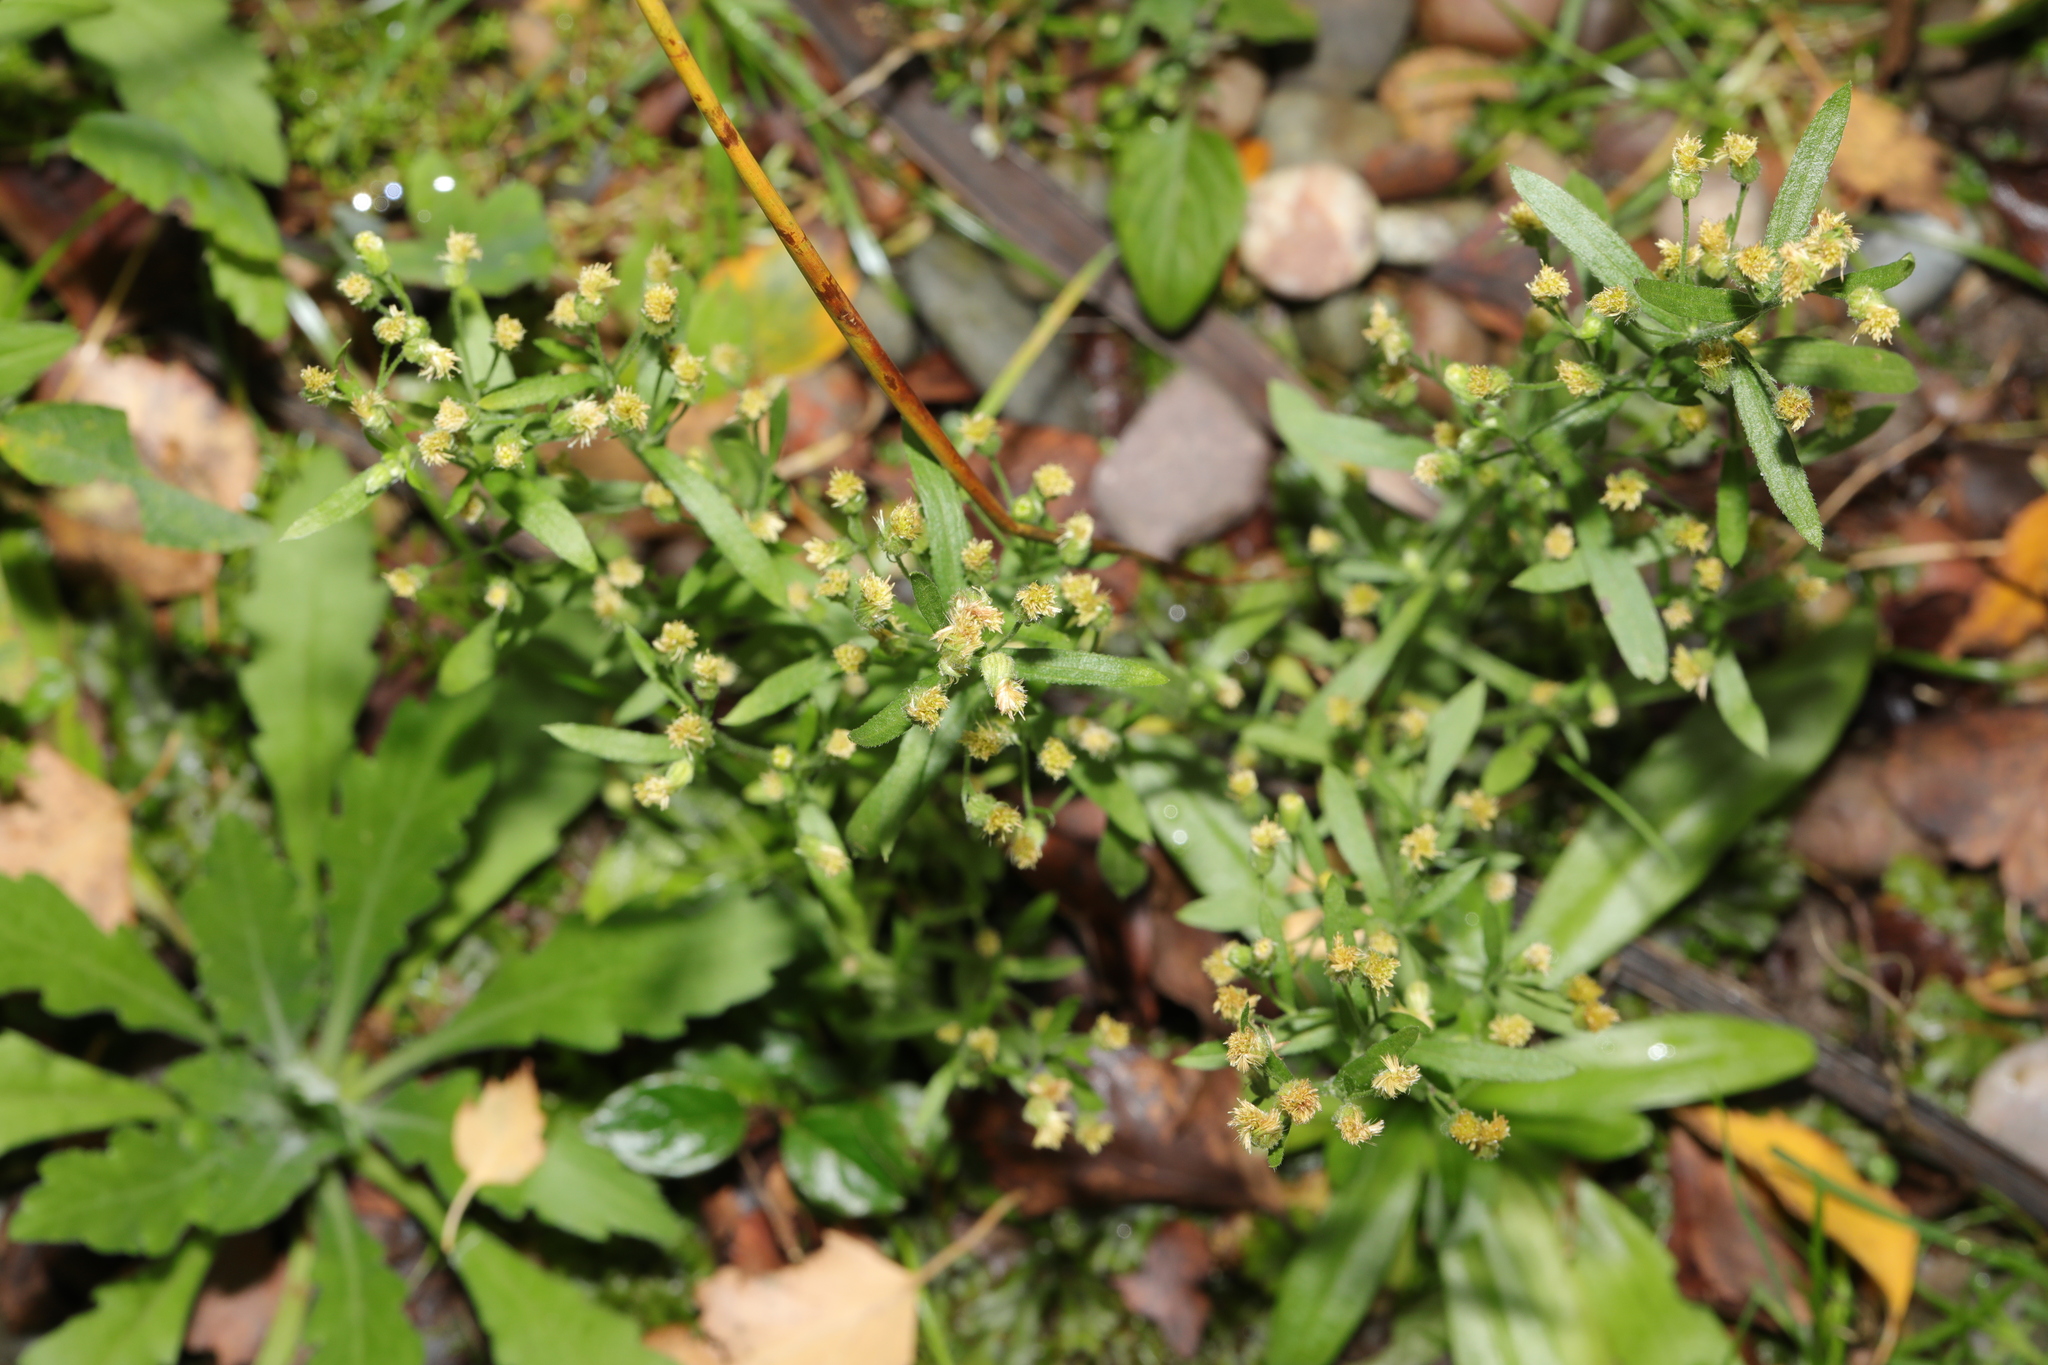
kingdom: Plantae
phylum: Tracheophyta
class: Magnoliopsida
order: Asterales
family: Asteraceae
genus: Erigeron
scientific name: Erigeron canadensis
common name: Canadian fleabane
